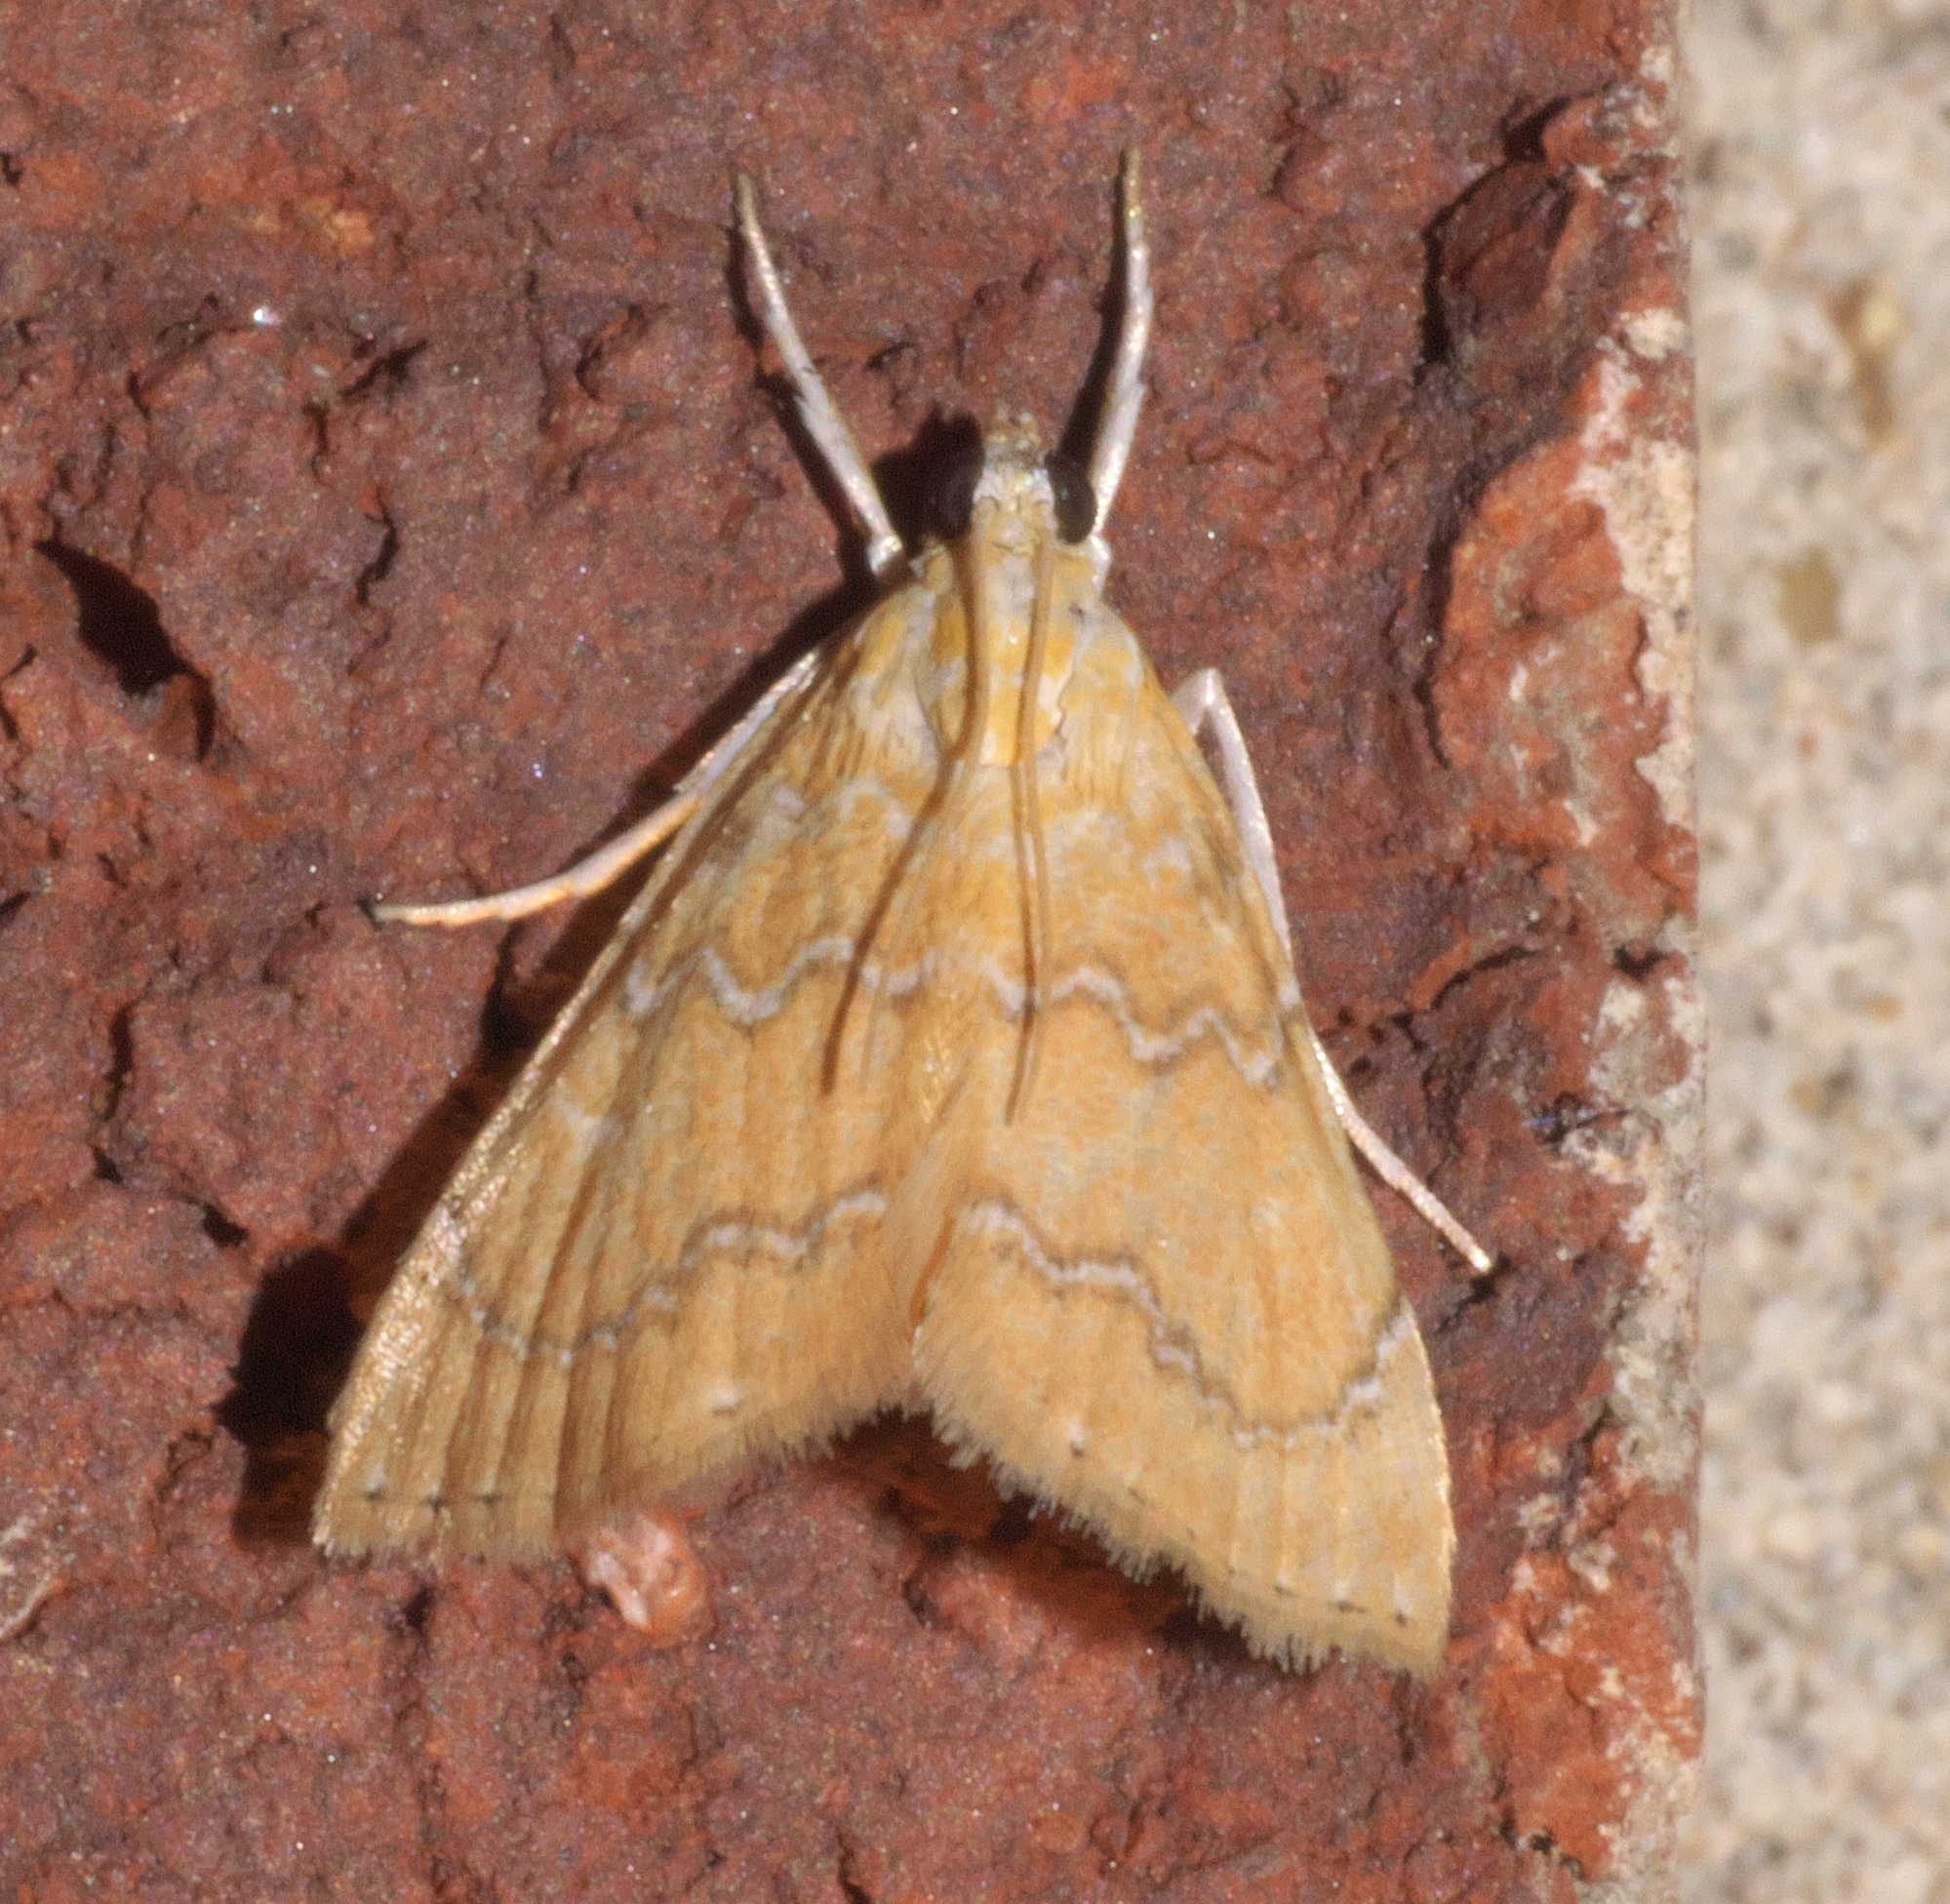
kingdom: Animalia
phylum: Arthropoda
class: Insecta
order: Lepidoptera
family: Crambidae
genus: Glaphyria
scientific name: Glaphyria sesquistrialis
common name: White-roped glaphyria
